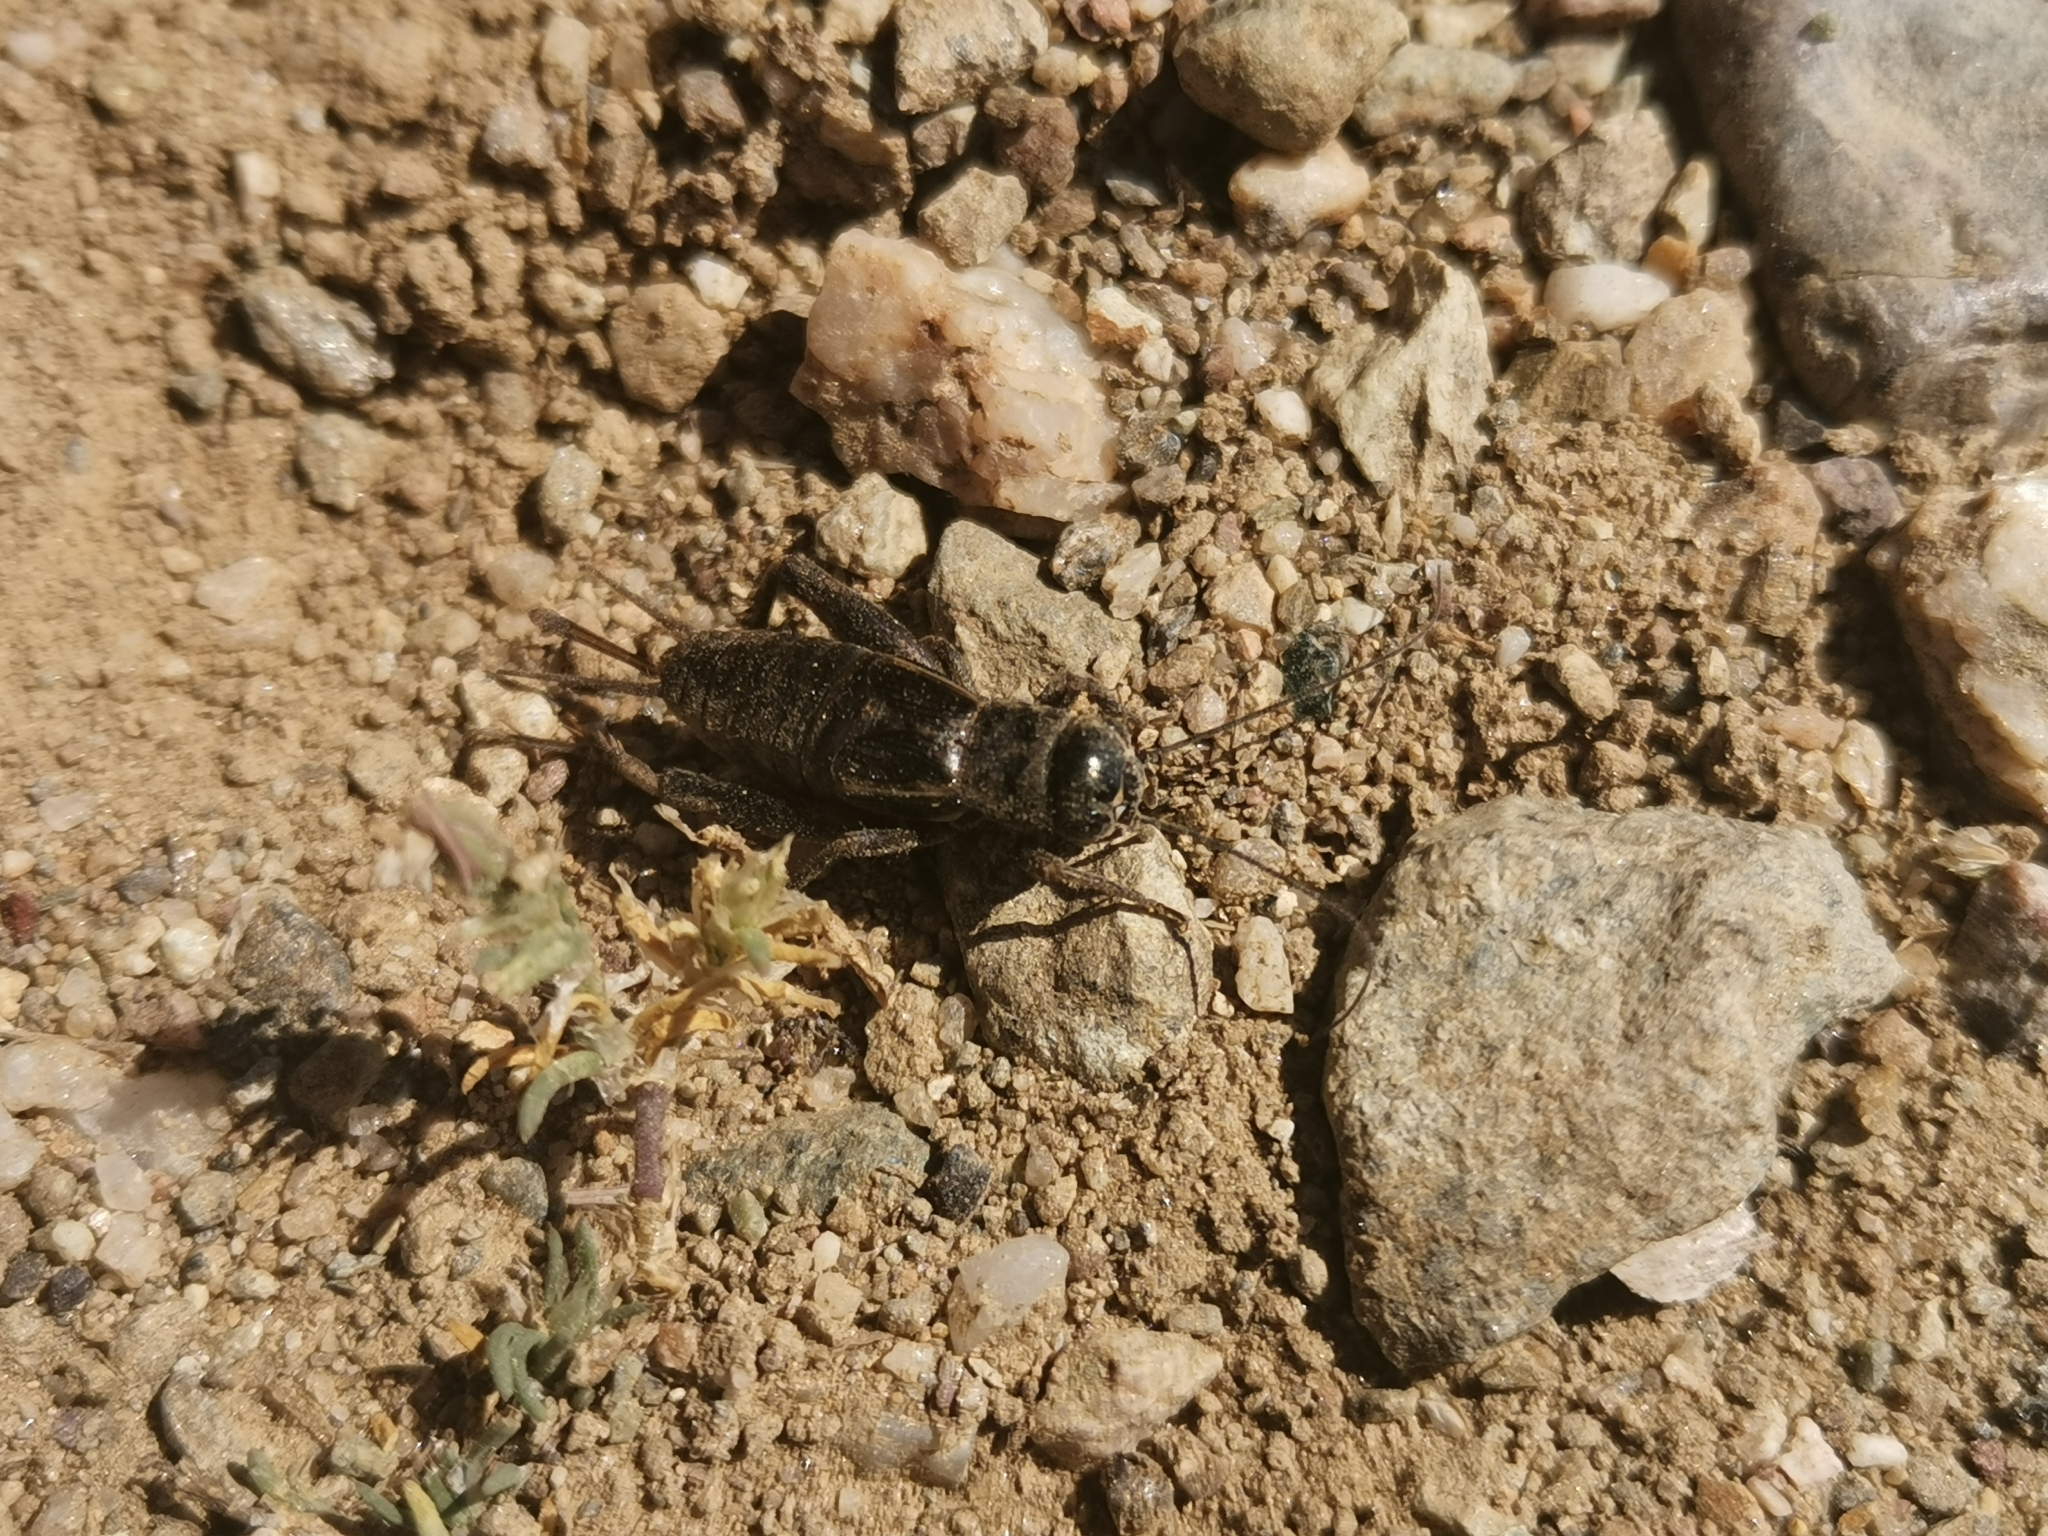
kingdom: Animalia
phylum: Arthropoda
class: Insecta
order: Orthoptera
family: Gryllidae
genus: Modicogryllus
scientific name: Modicogryllus algirius
